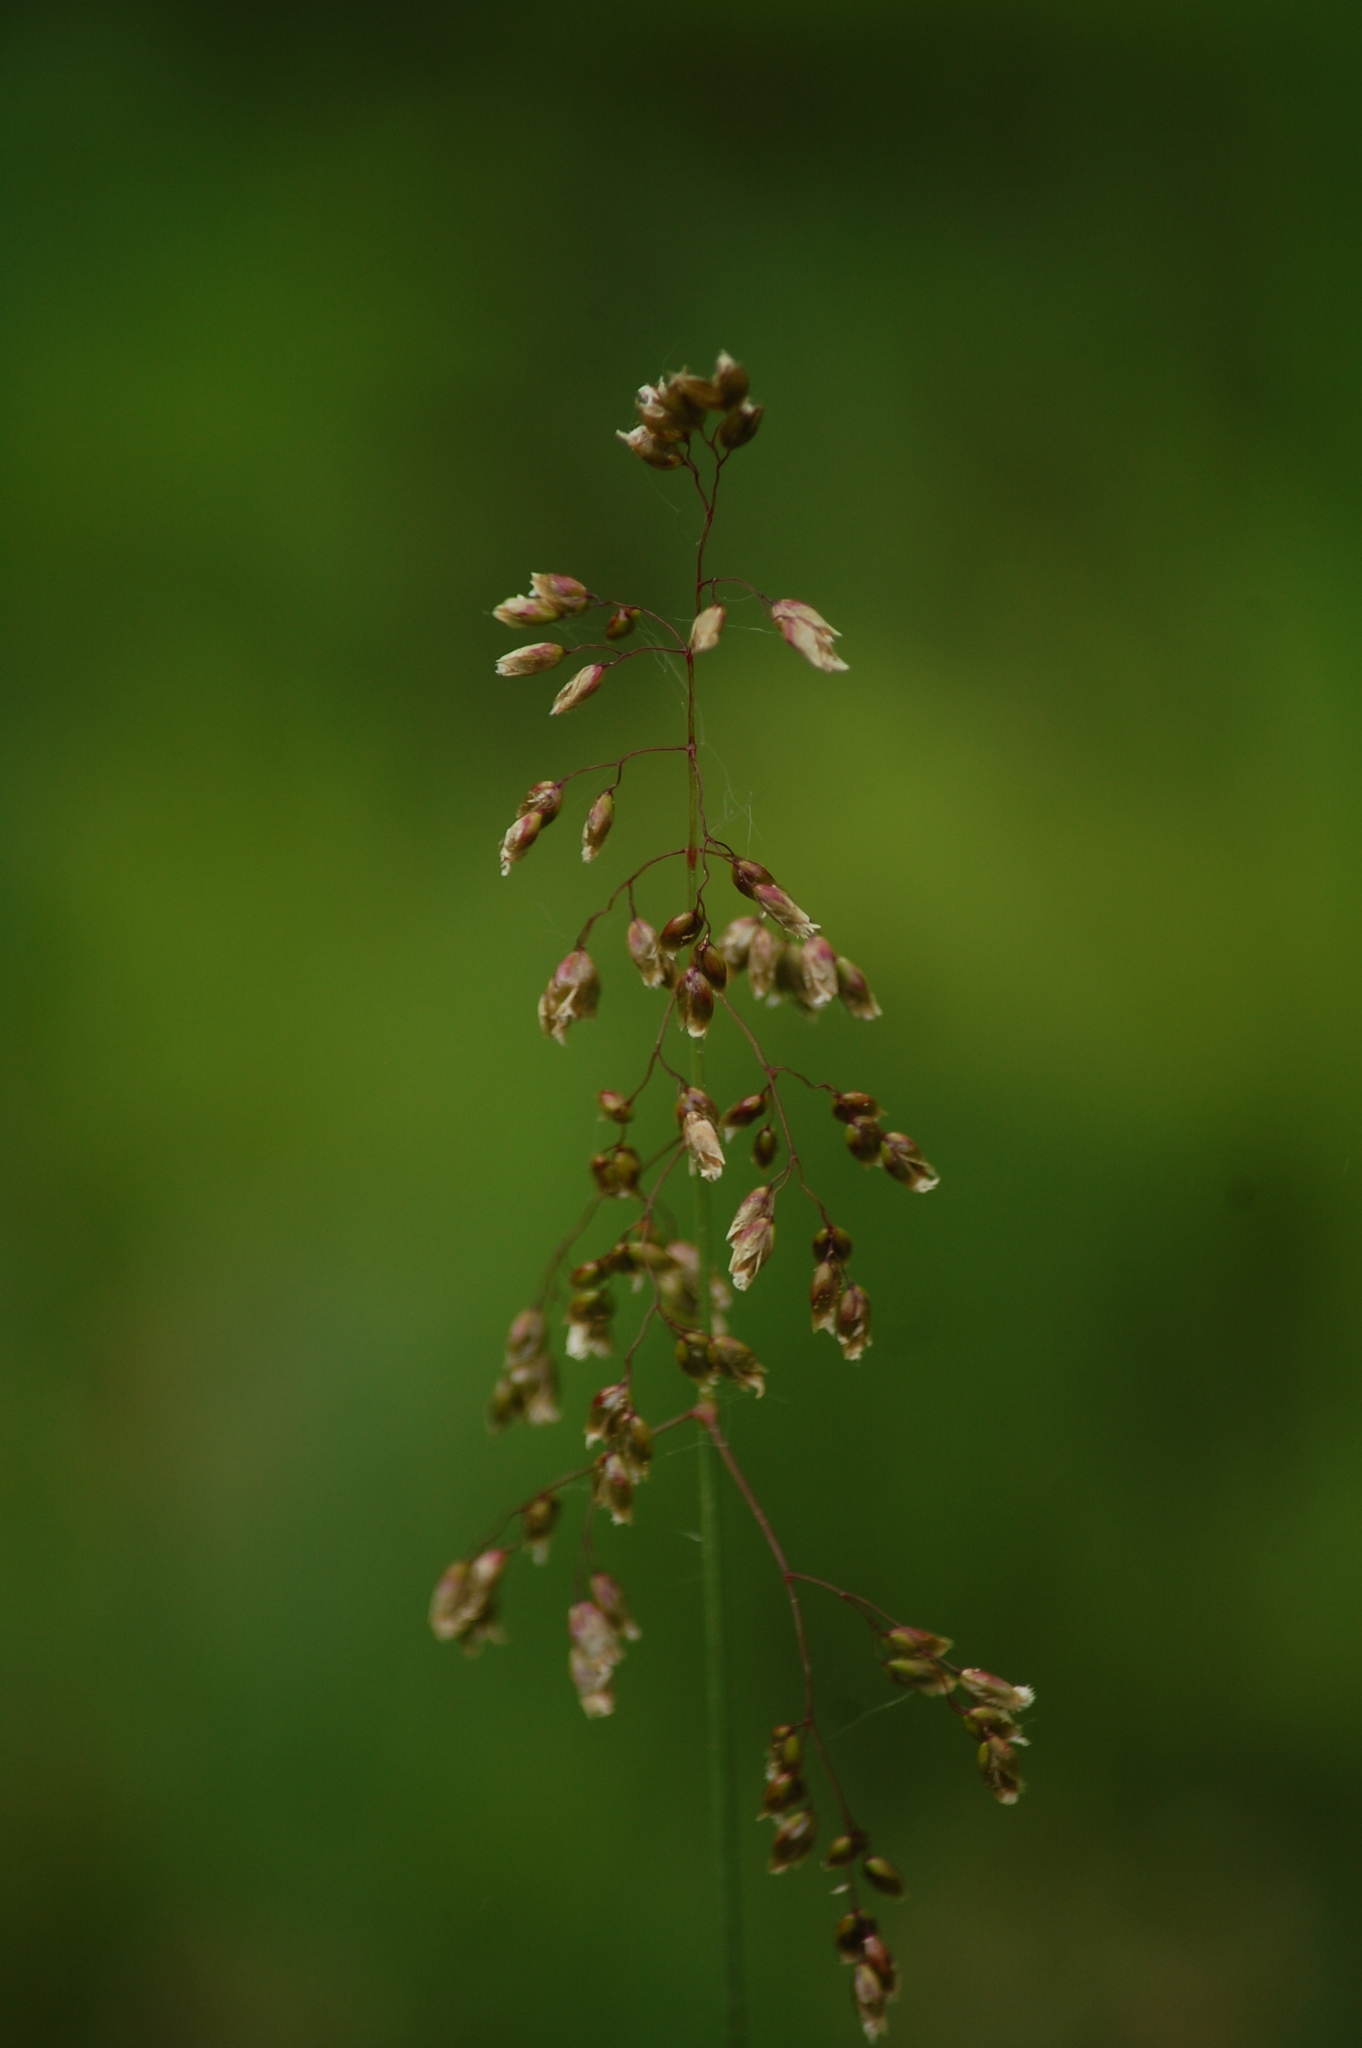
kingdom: Plantae
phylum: Tracheophyta
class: Liliopsida
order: Poales
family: Poaceae
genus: Anthoxanthum
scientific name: Anthoxanthum nitens
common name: Holy grass
